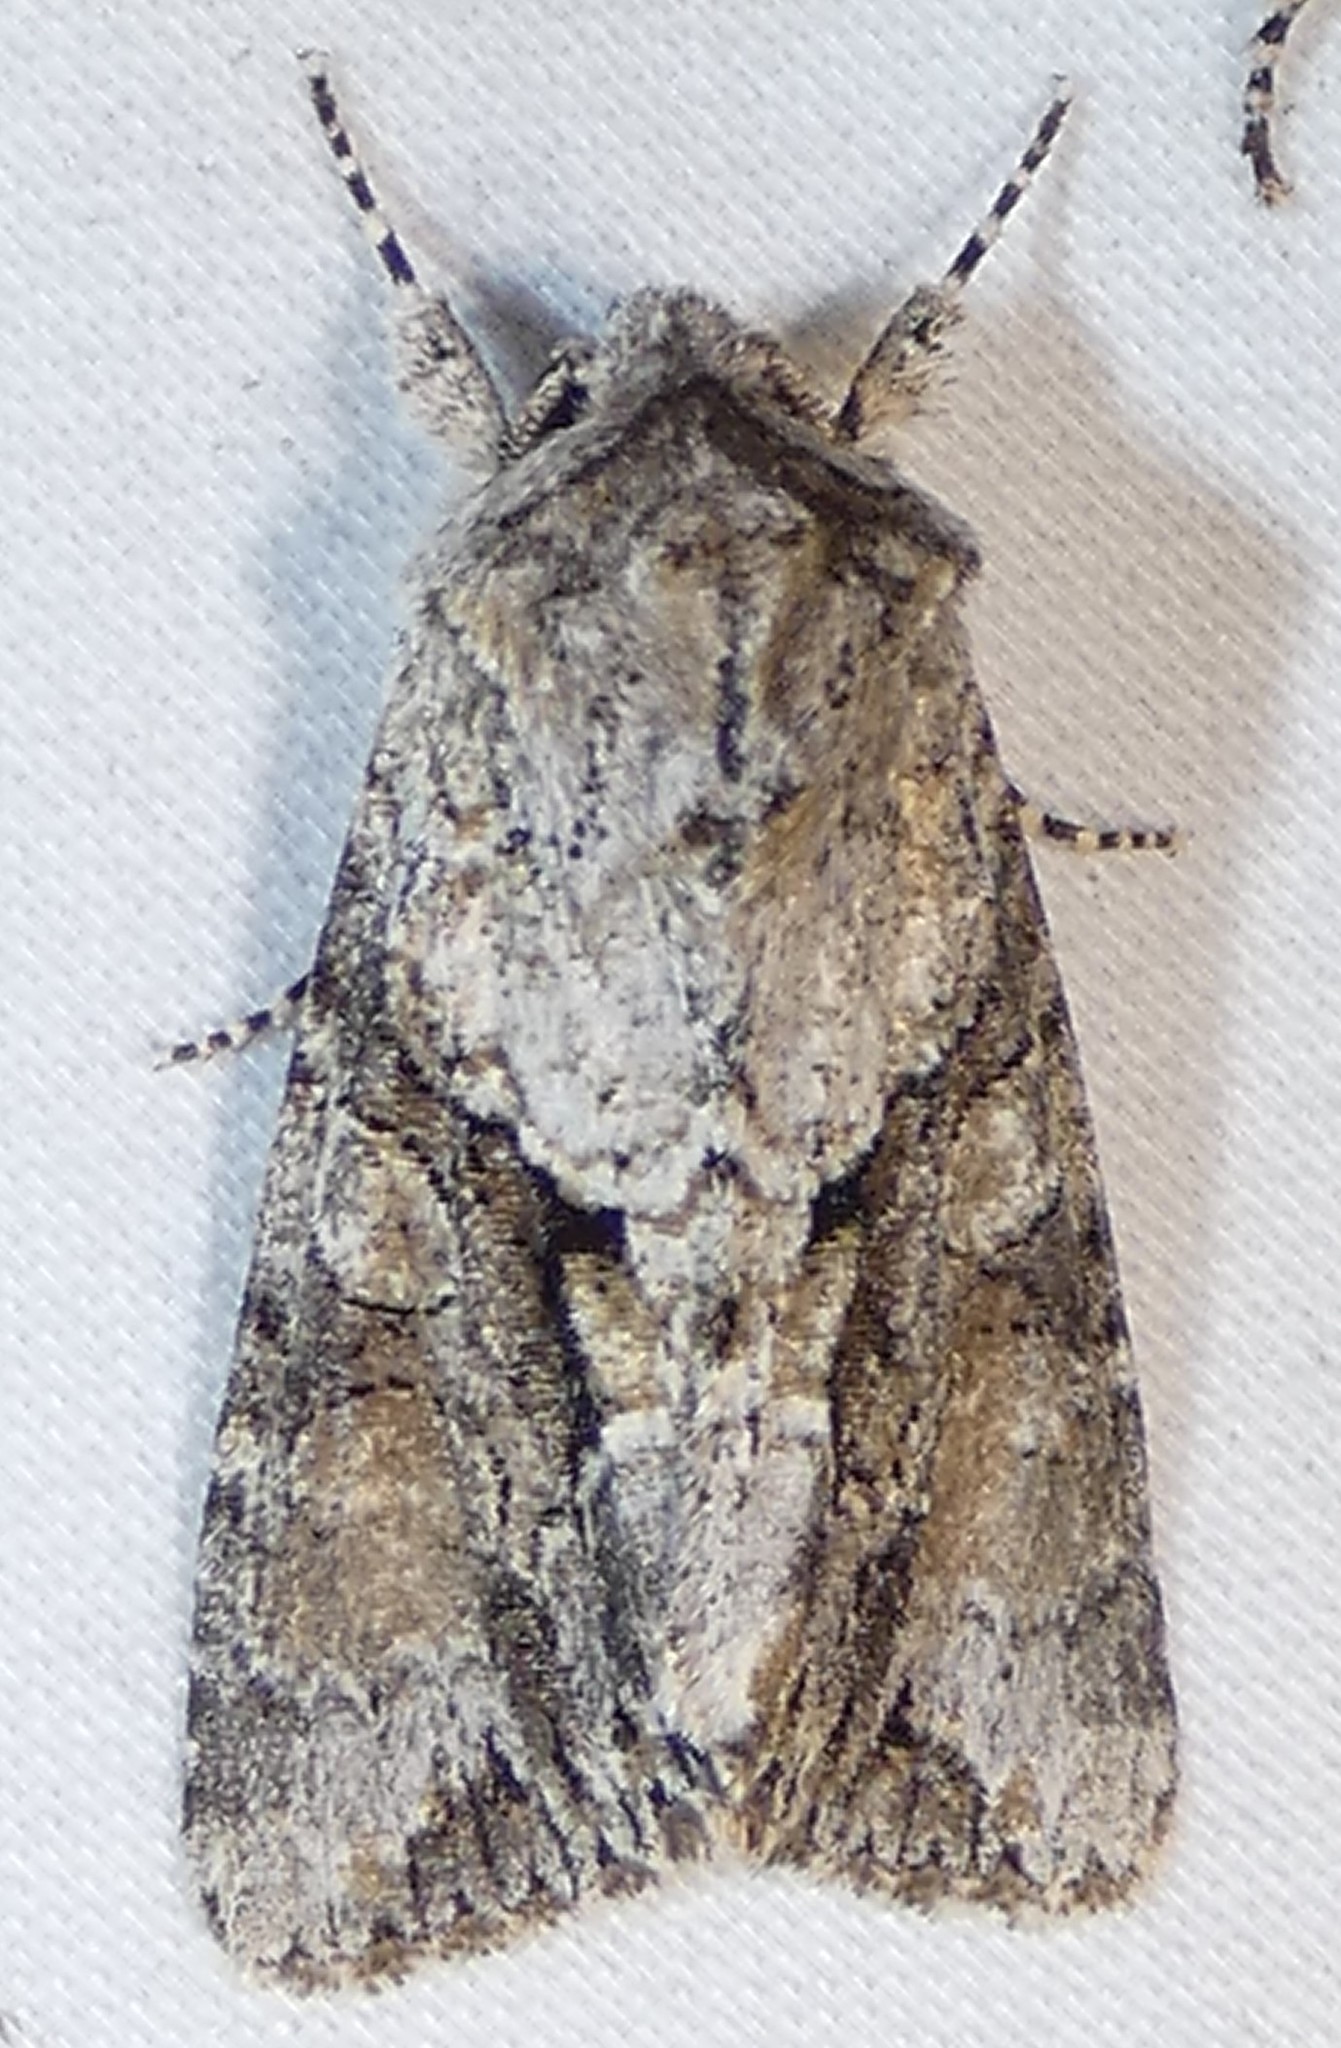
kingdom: Animalia
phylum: Arthropoda
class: Insecta
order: Lepidoptera
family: Noctuidae
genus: Achatia
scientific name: Achatia distincta
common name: Distinct quaker
